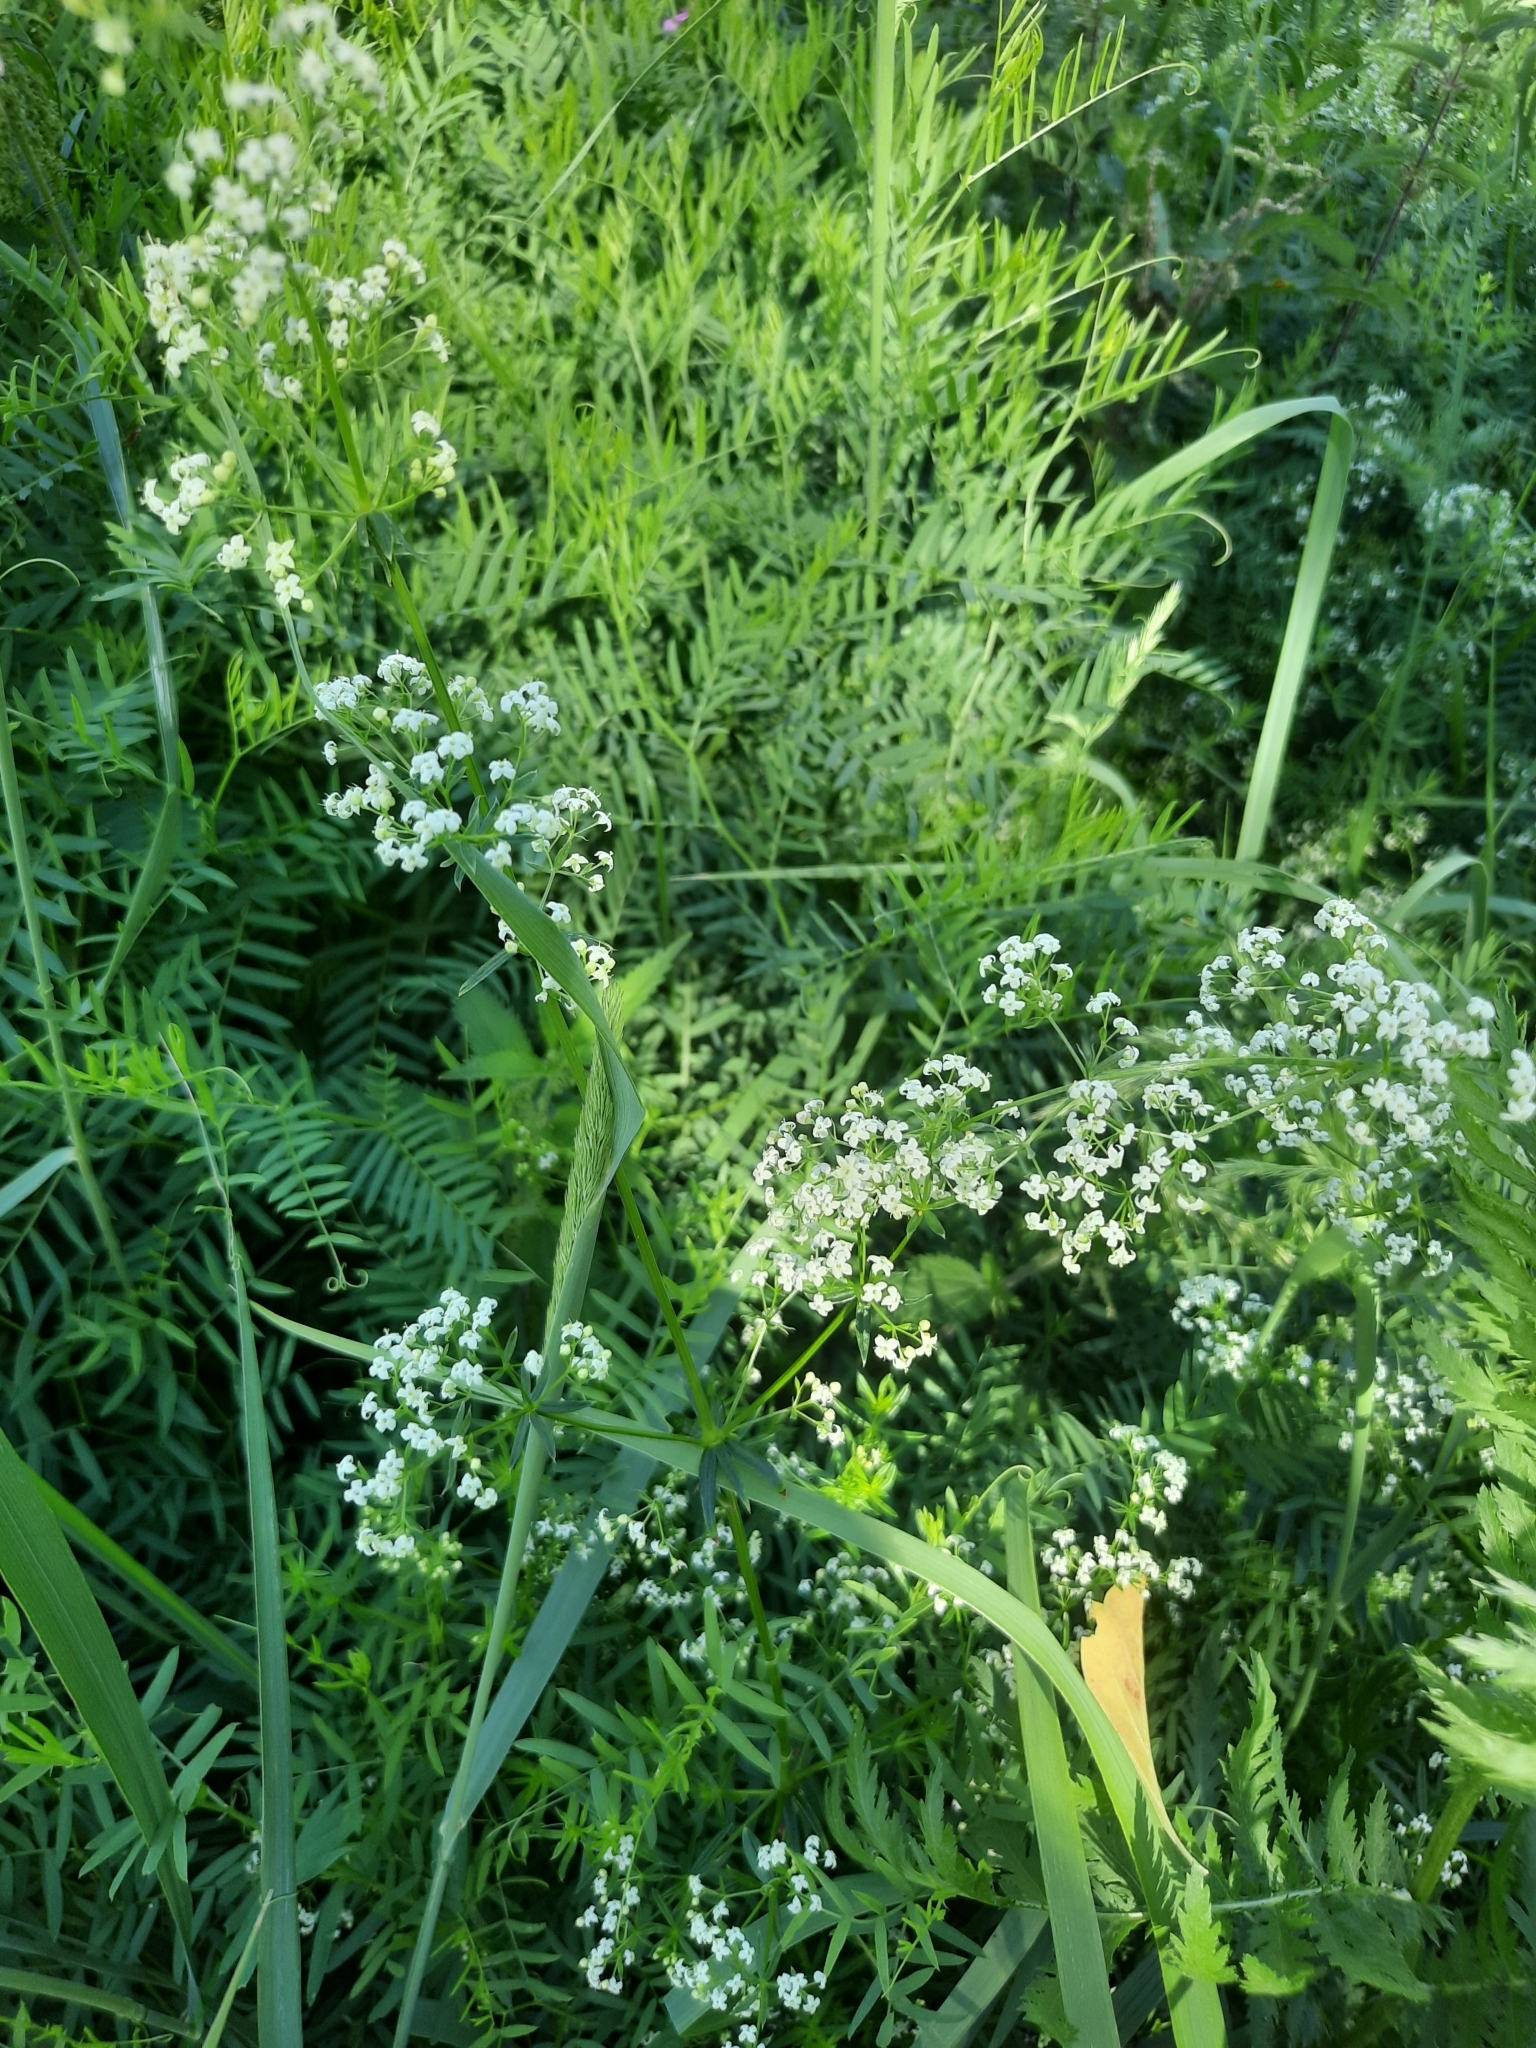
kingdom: Plantae
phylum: Tracheophyta
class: Magnoliopsida
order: Gentianales
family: Rubiaceae
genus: Galium
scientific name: Galium mollugo
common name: Hedge bedstraw
